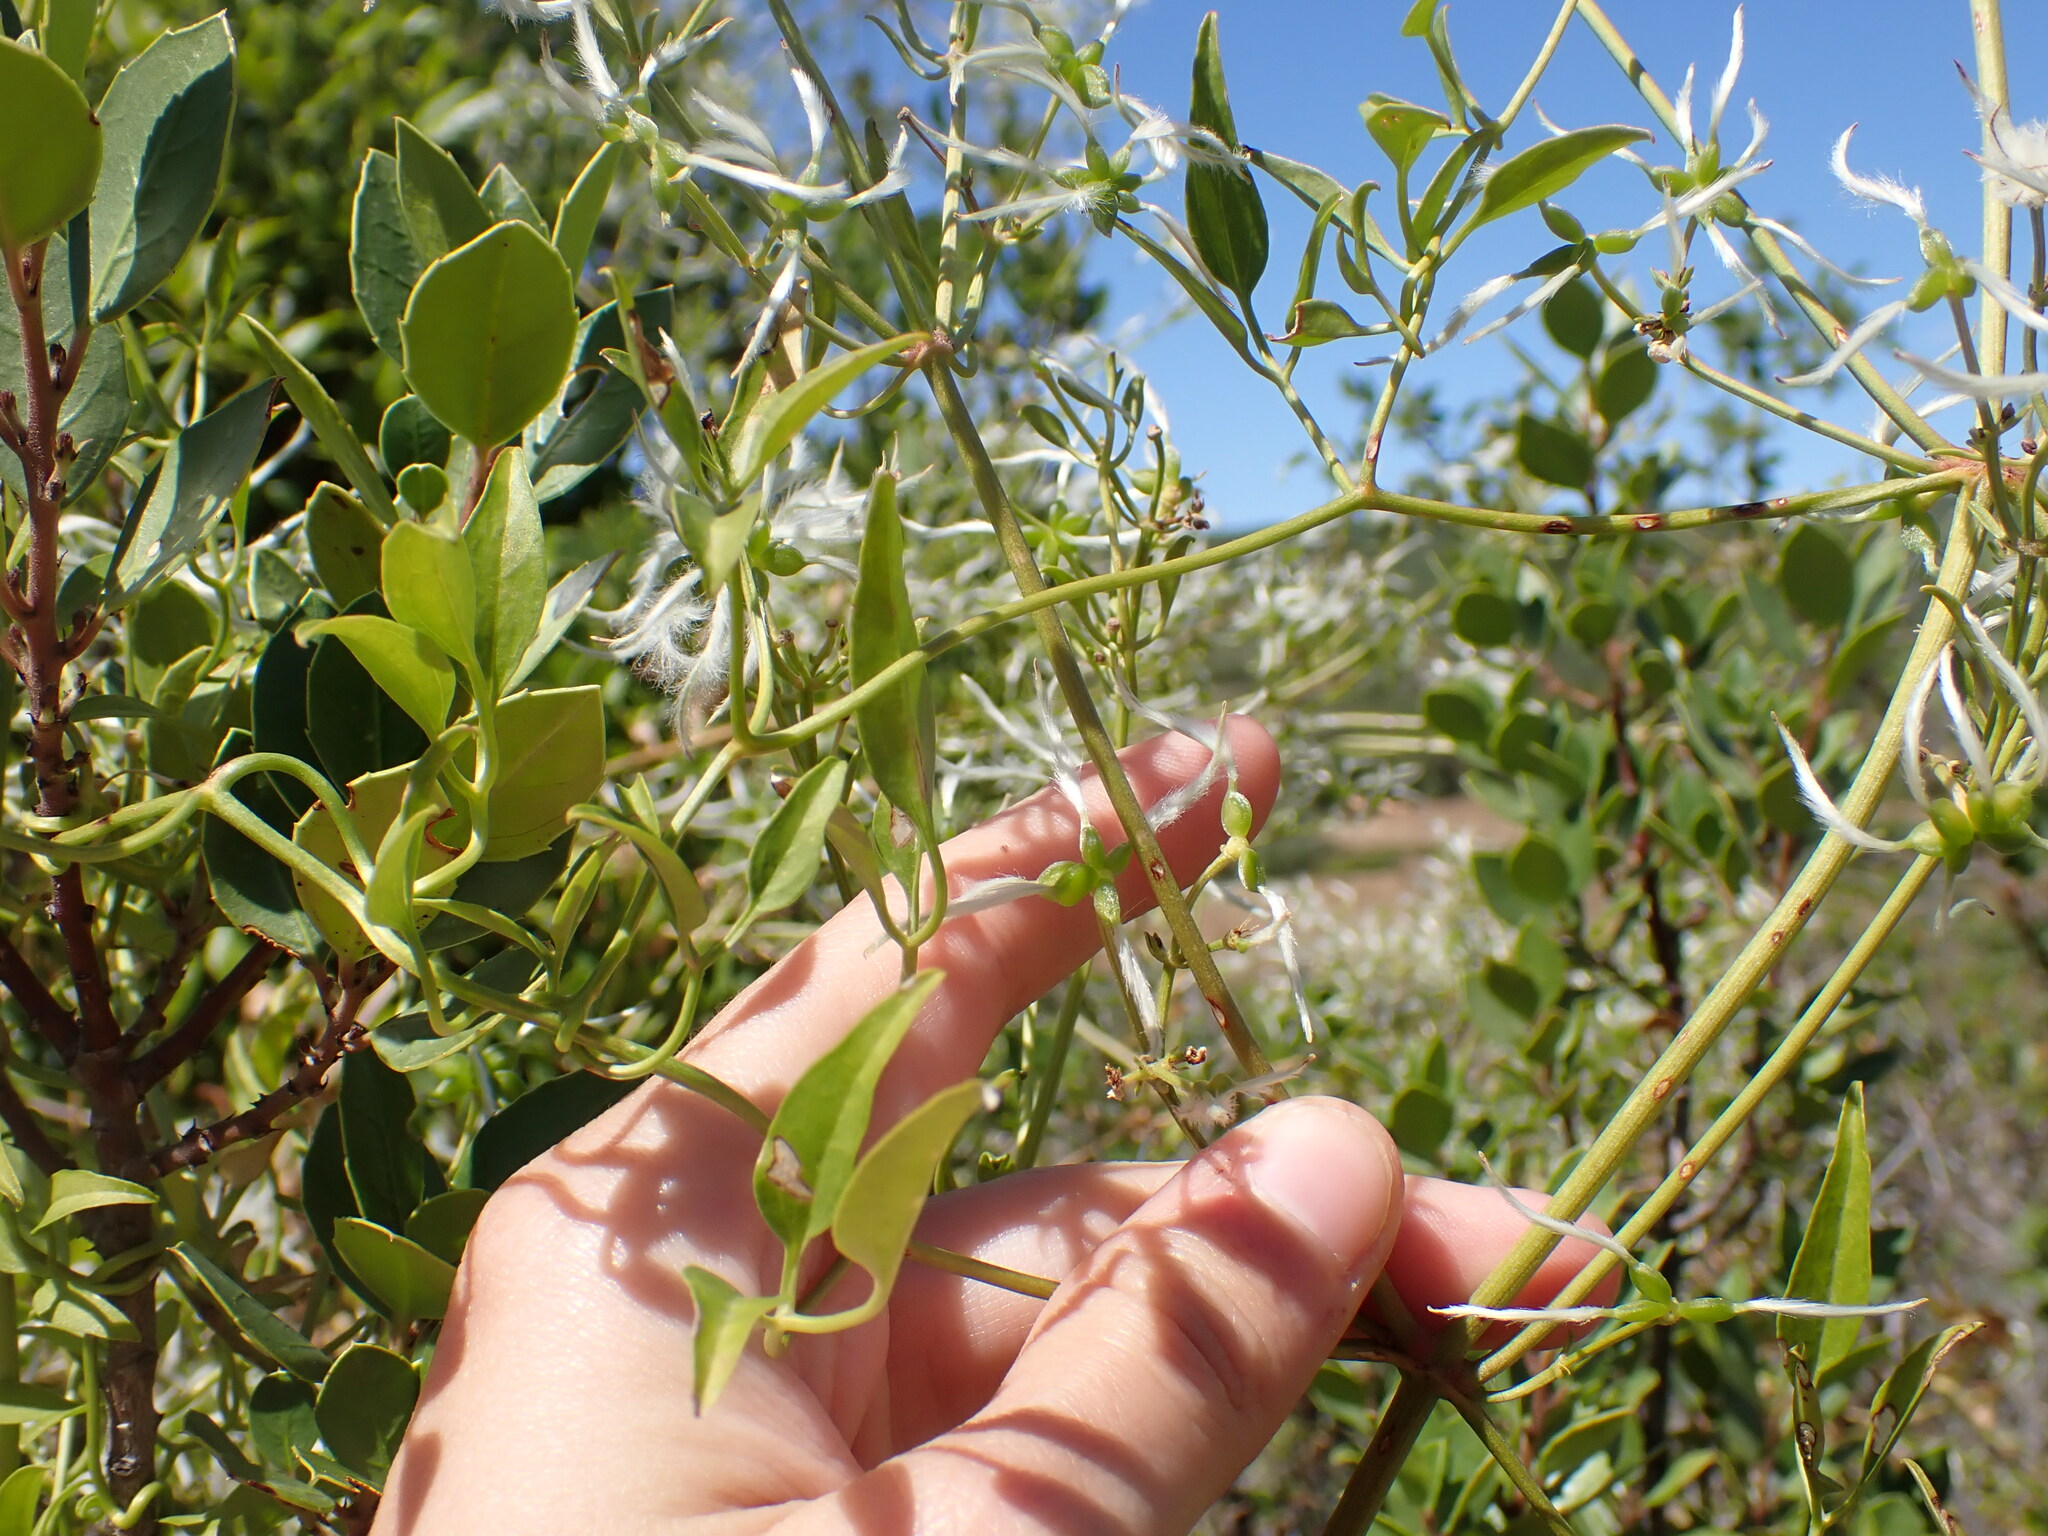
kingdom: Plantae
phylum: Tracheophyta
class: Magnoliopsida
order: Ranunculales
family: Ranunculaceae
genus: Clematis
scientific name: Clematis flammula
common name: Virgin's-bower
